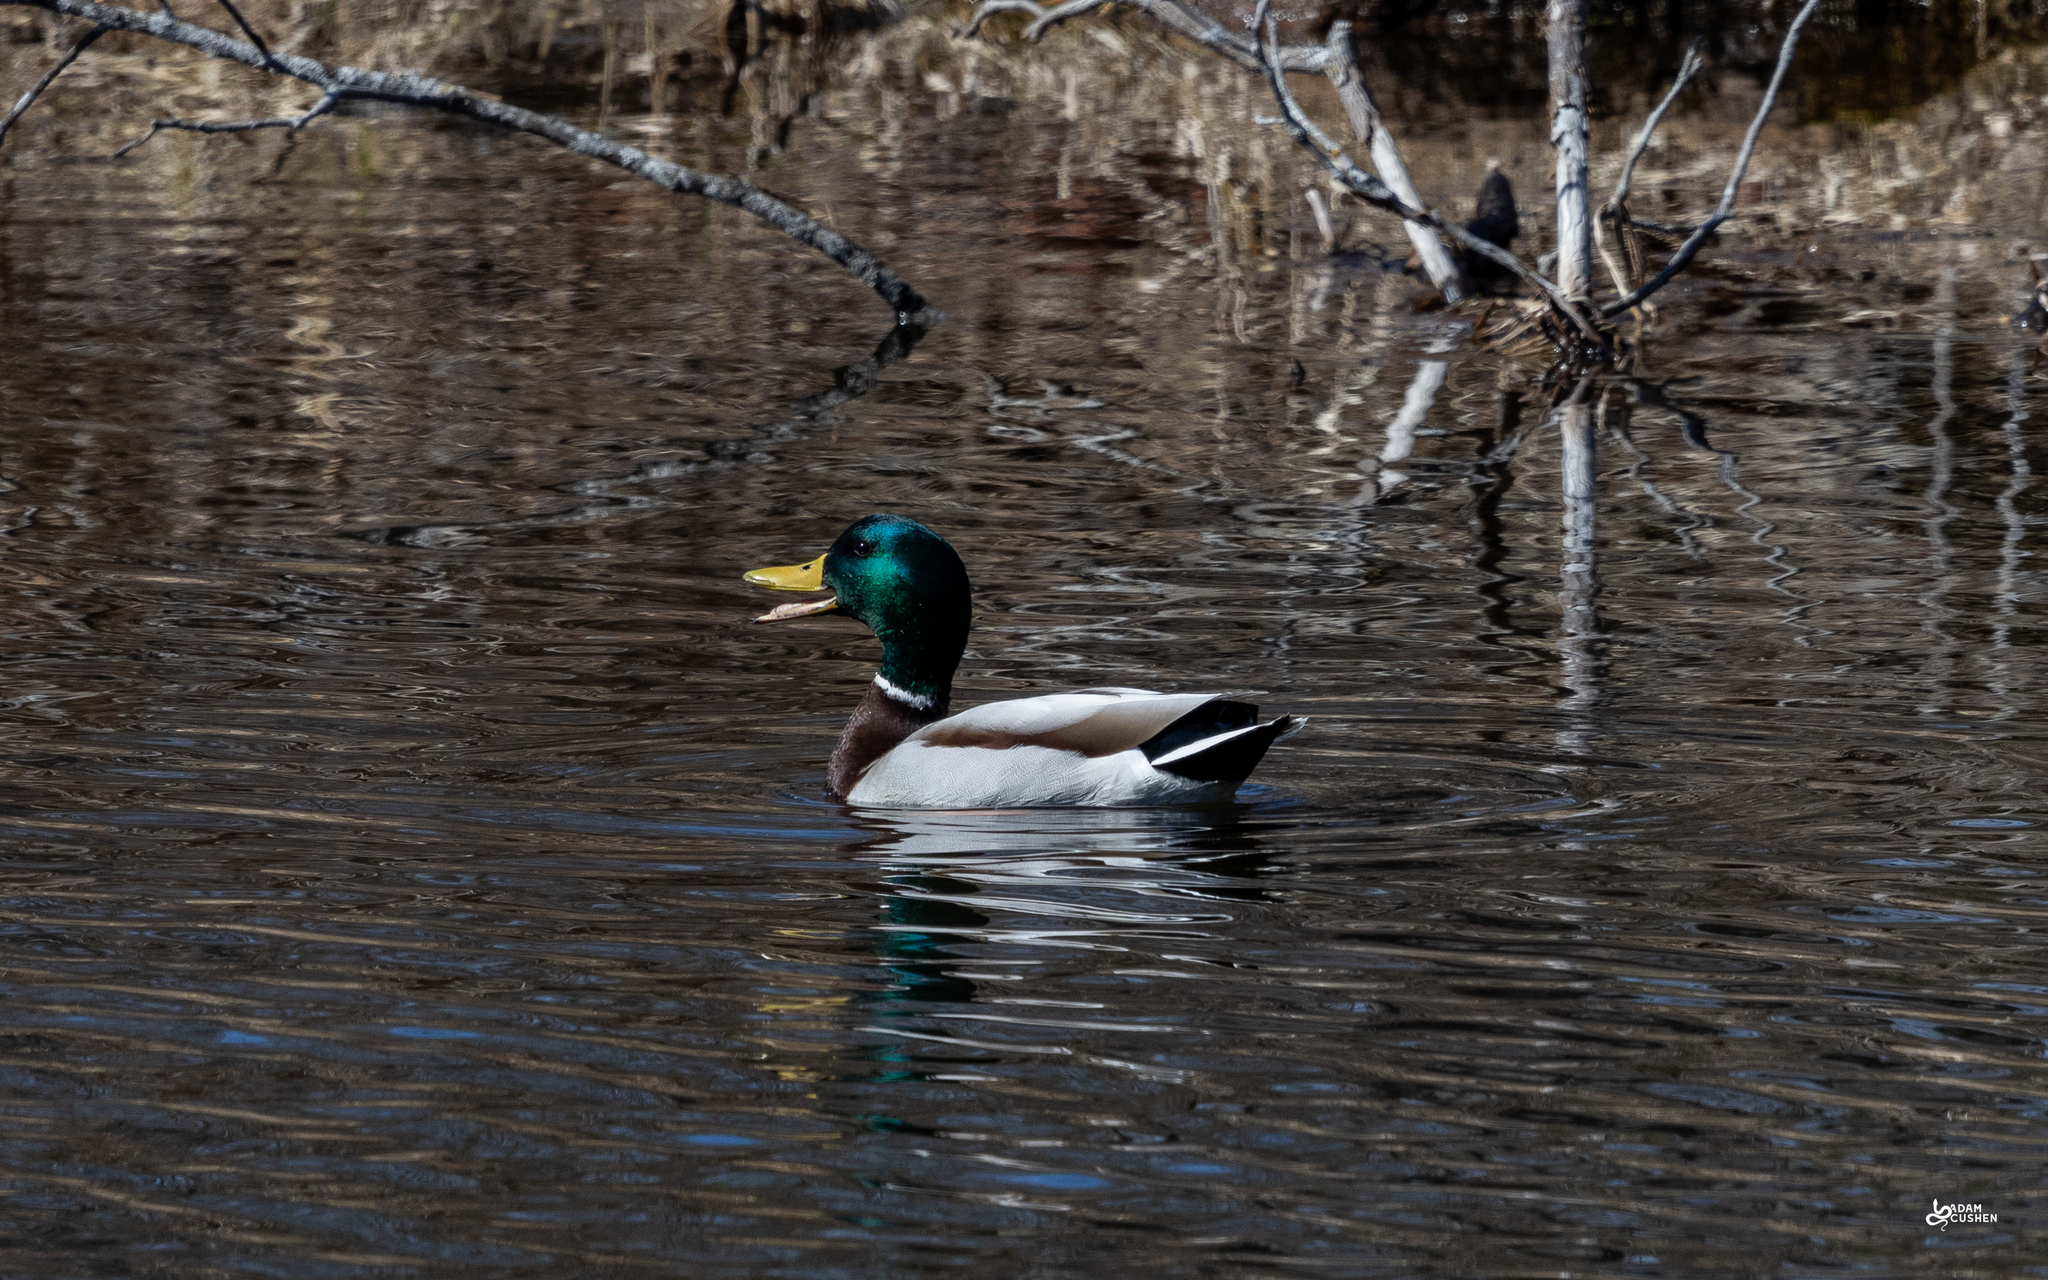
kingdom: Animalia
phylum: Chordata
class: Aves
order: Anseriformes
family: Anatidae
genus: Anas
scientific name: Anas platyrhynchos
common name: Mallard
